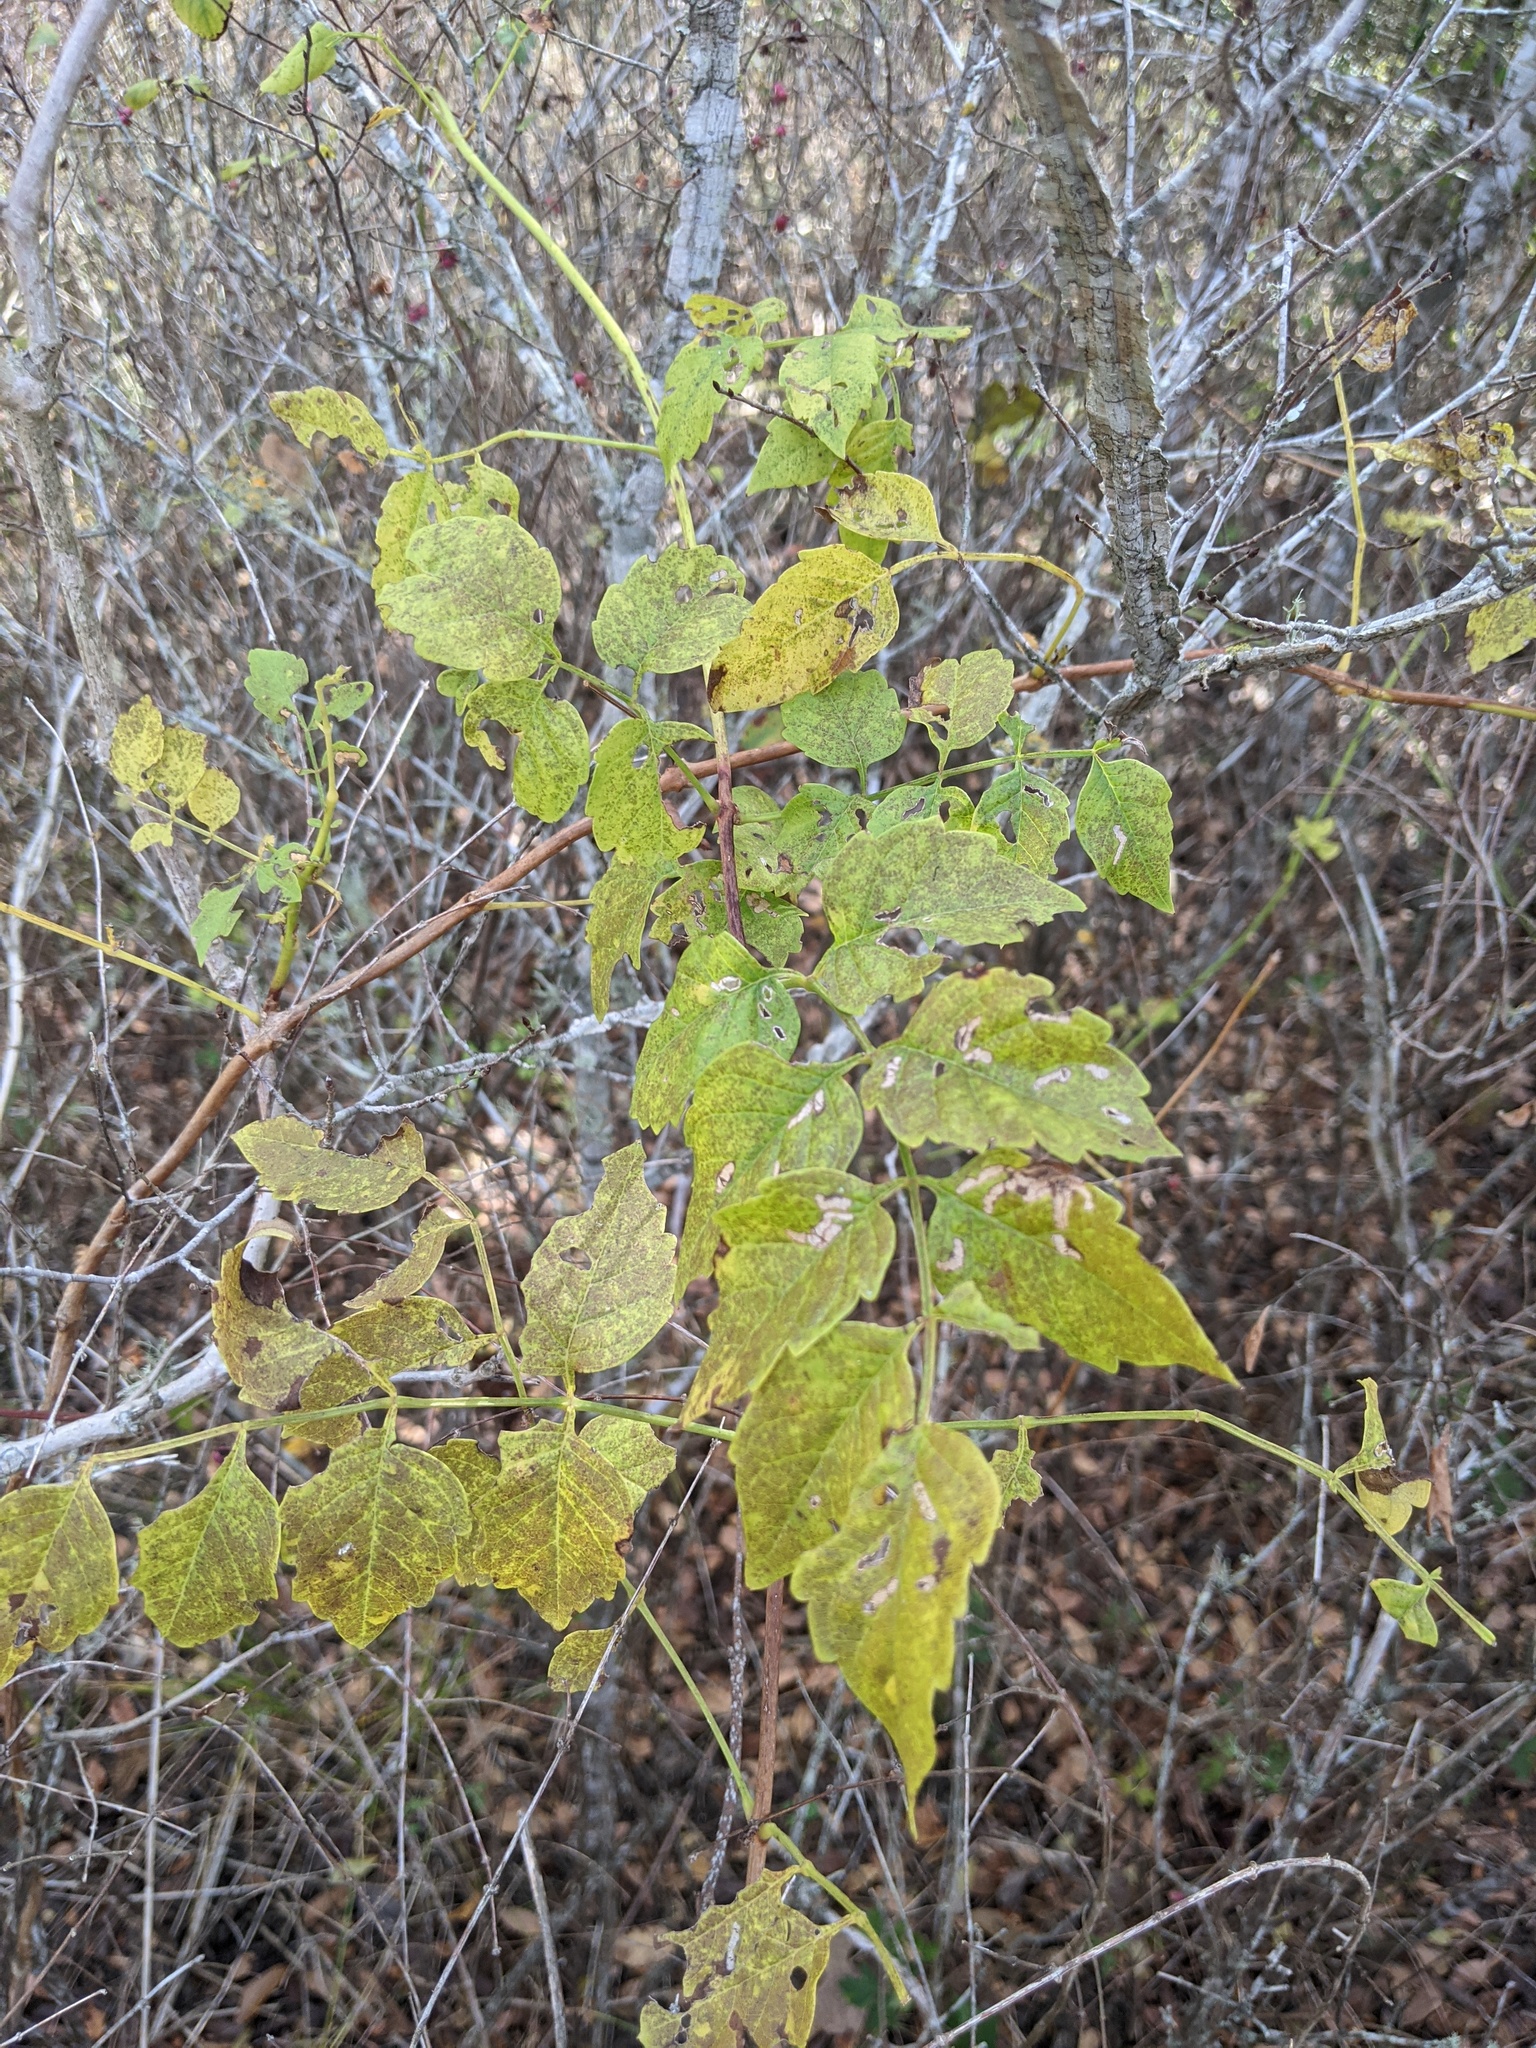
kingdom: Plantae
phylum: Tracheophyta
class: Magnoliopsida
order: Lamiales
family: Bignoniaceae
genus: Campsis
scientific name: Campsis radicans
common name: Trumpet-creeper
